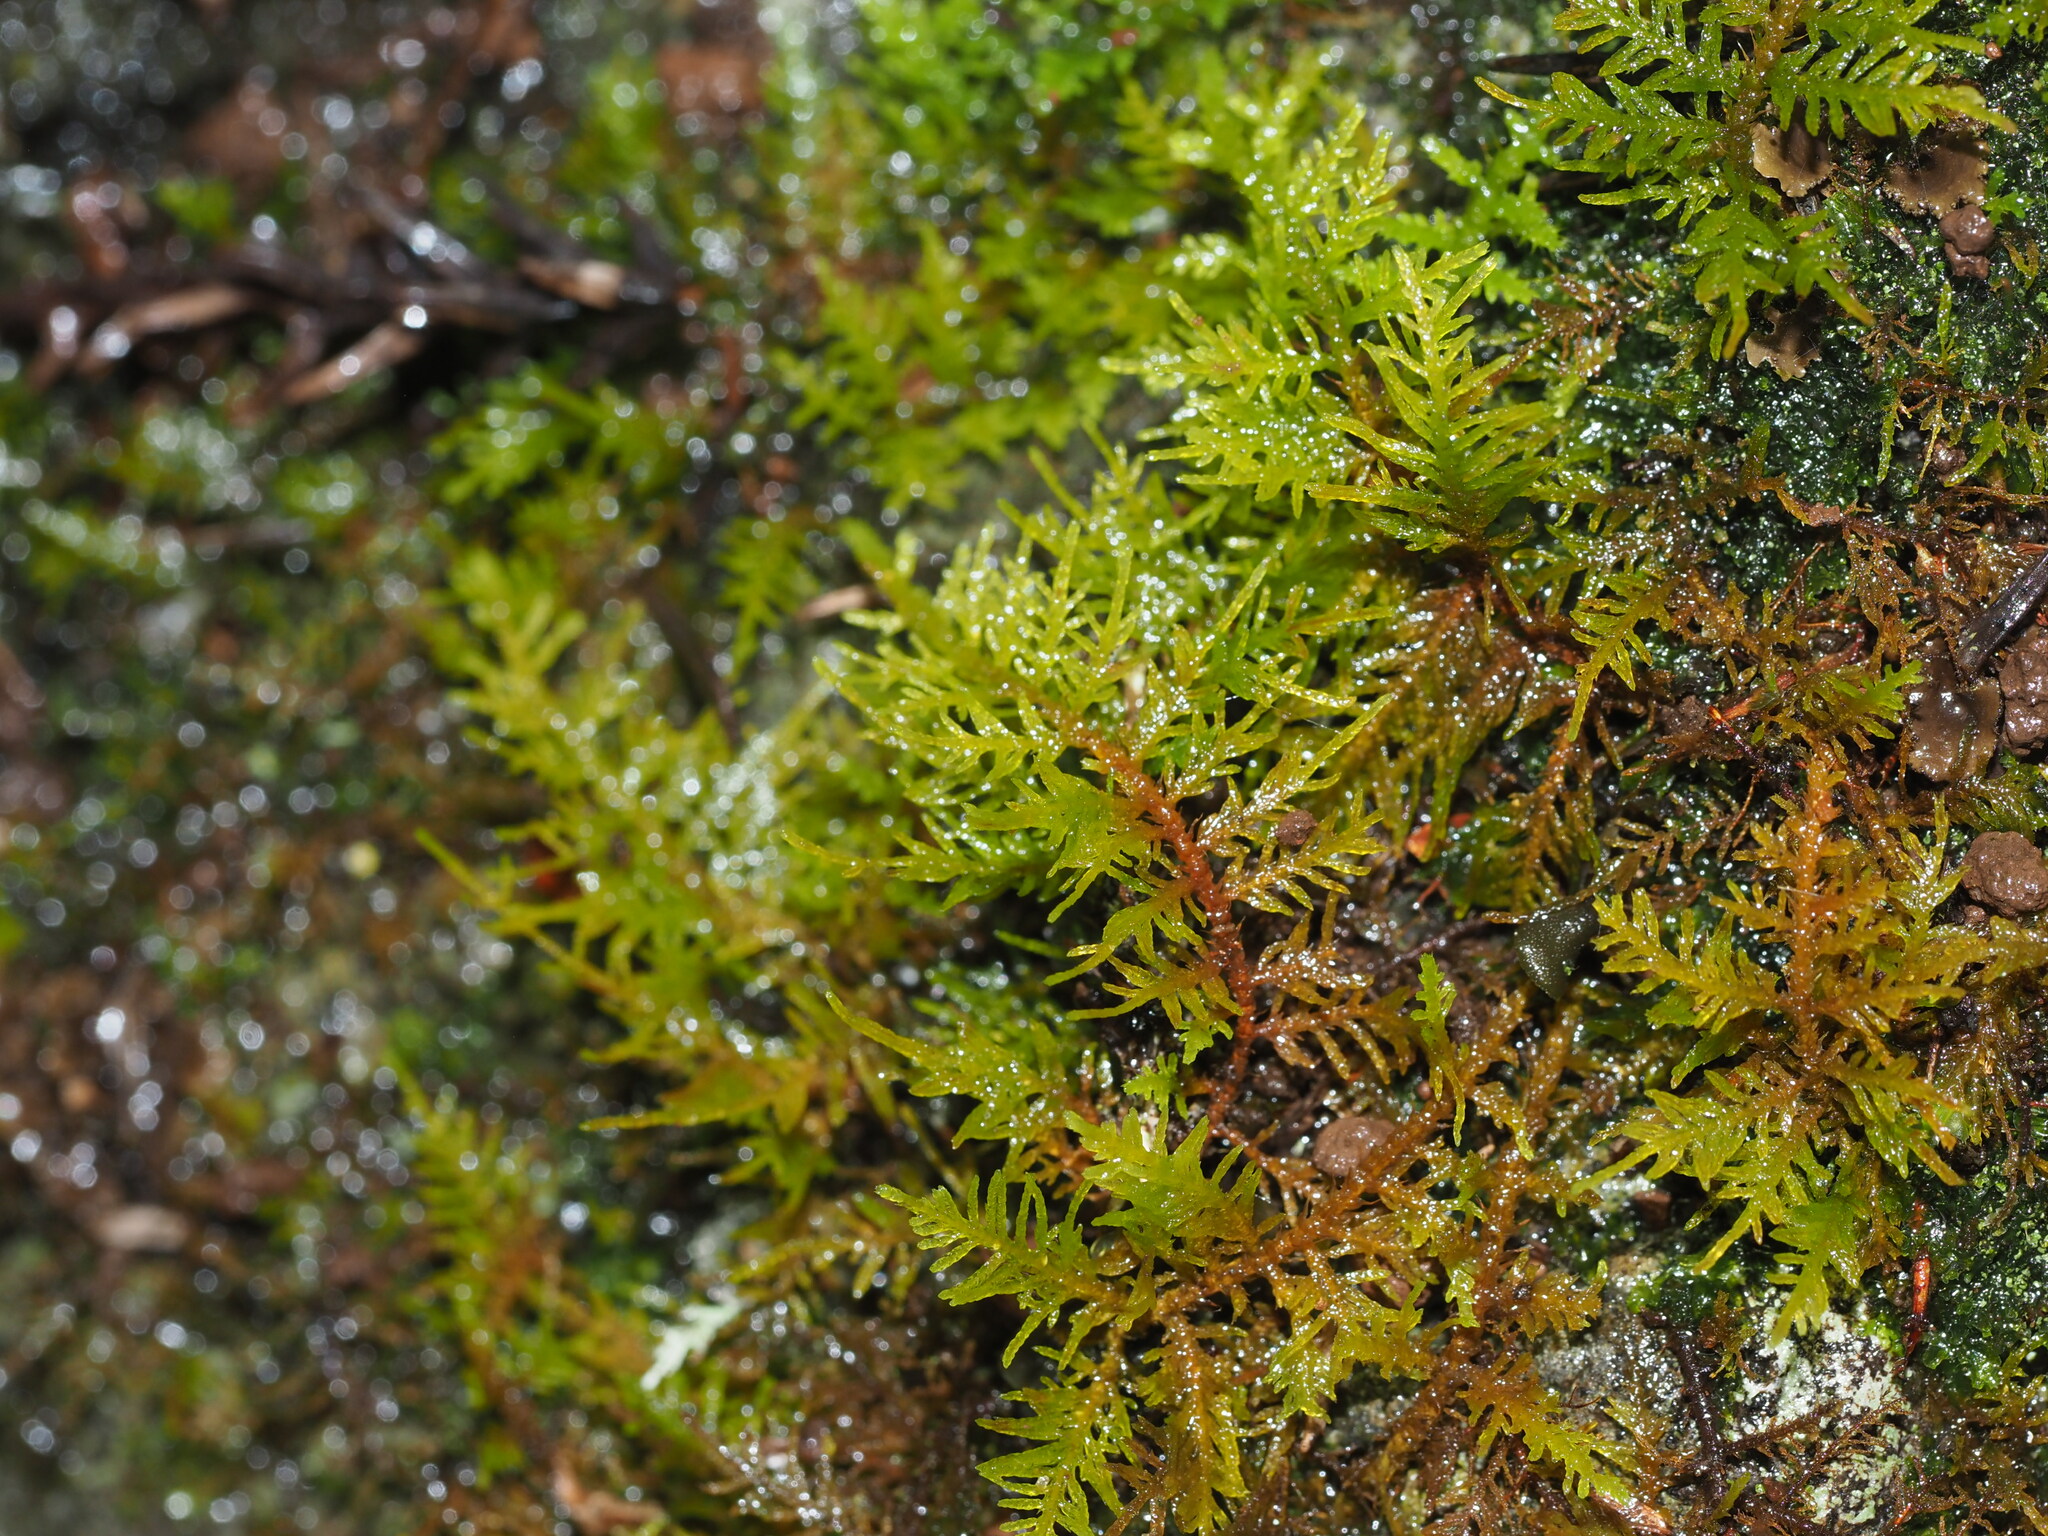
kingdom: Plantae
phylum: Bryophyta
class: Bryopsida
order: Hypnales
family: Thuidiaceae
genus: Thuidium
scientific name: Thuidium cymbifolium
